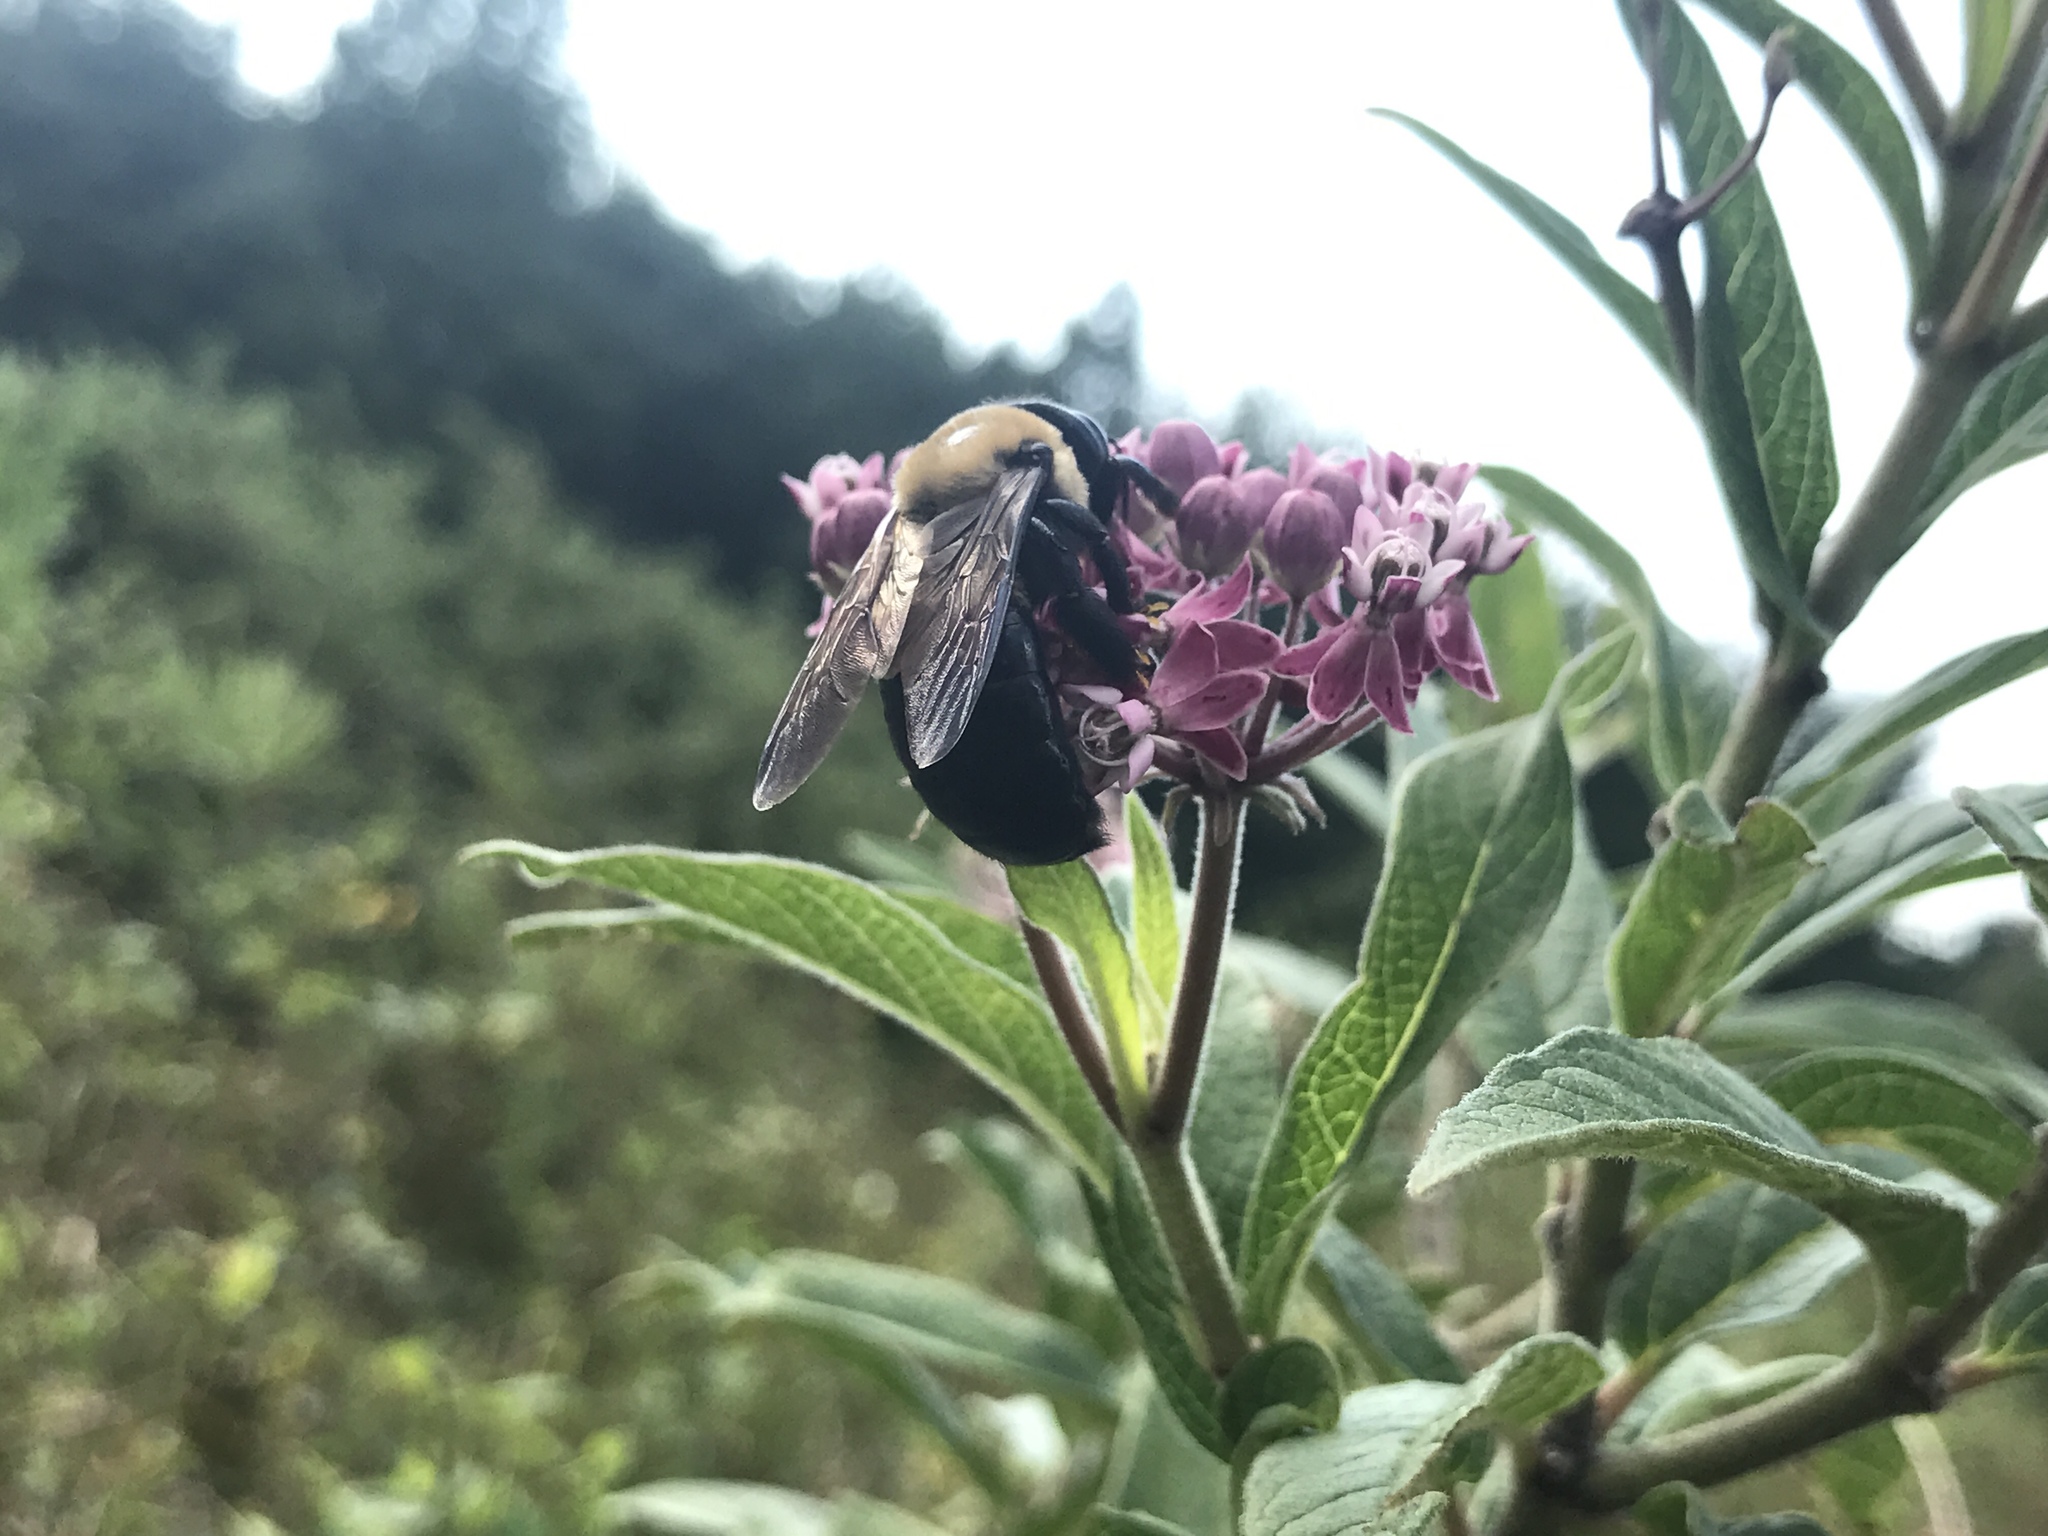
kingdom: Animalia
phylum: Arthropoda
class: Insecta
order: Hymenoptera
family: Apidae
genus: Xylocopa
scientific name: Xylocopa virginica
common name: Carpenter bee
